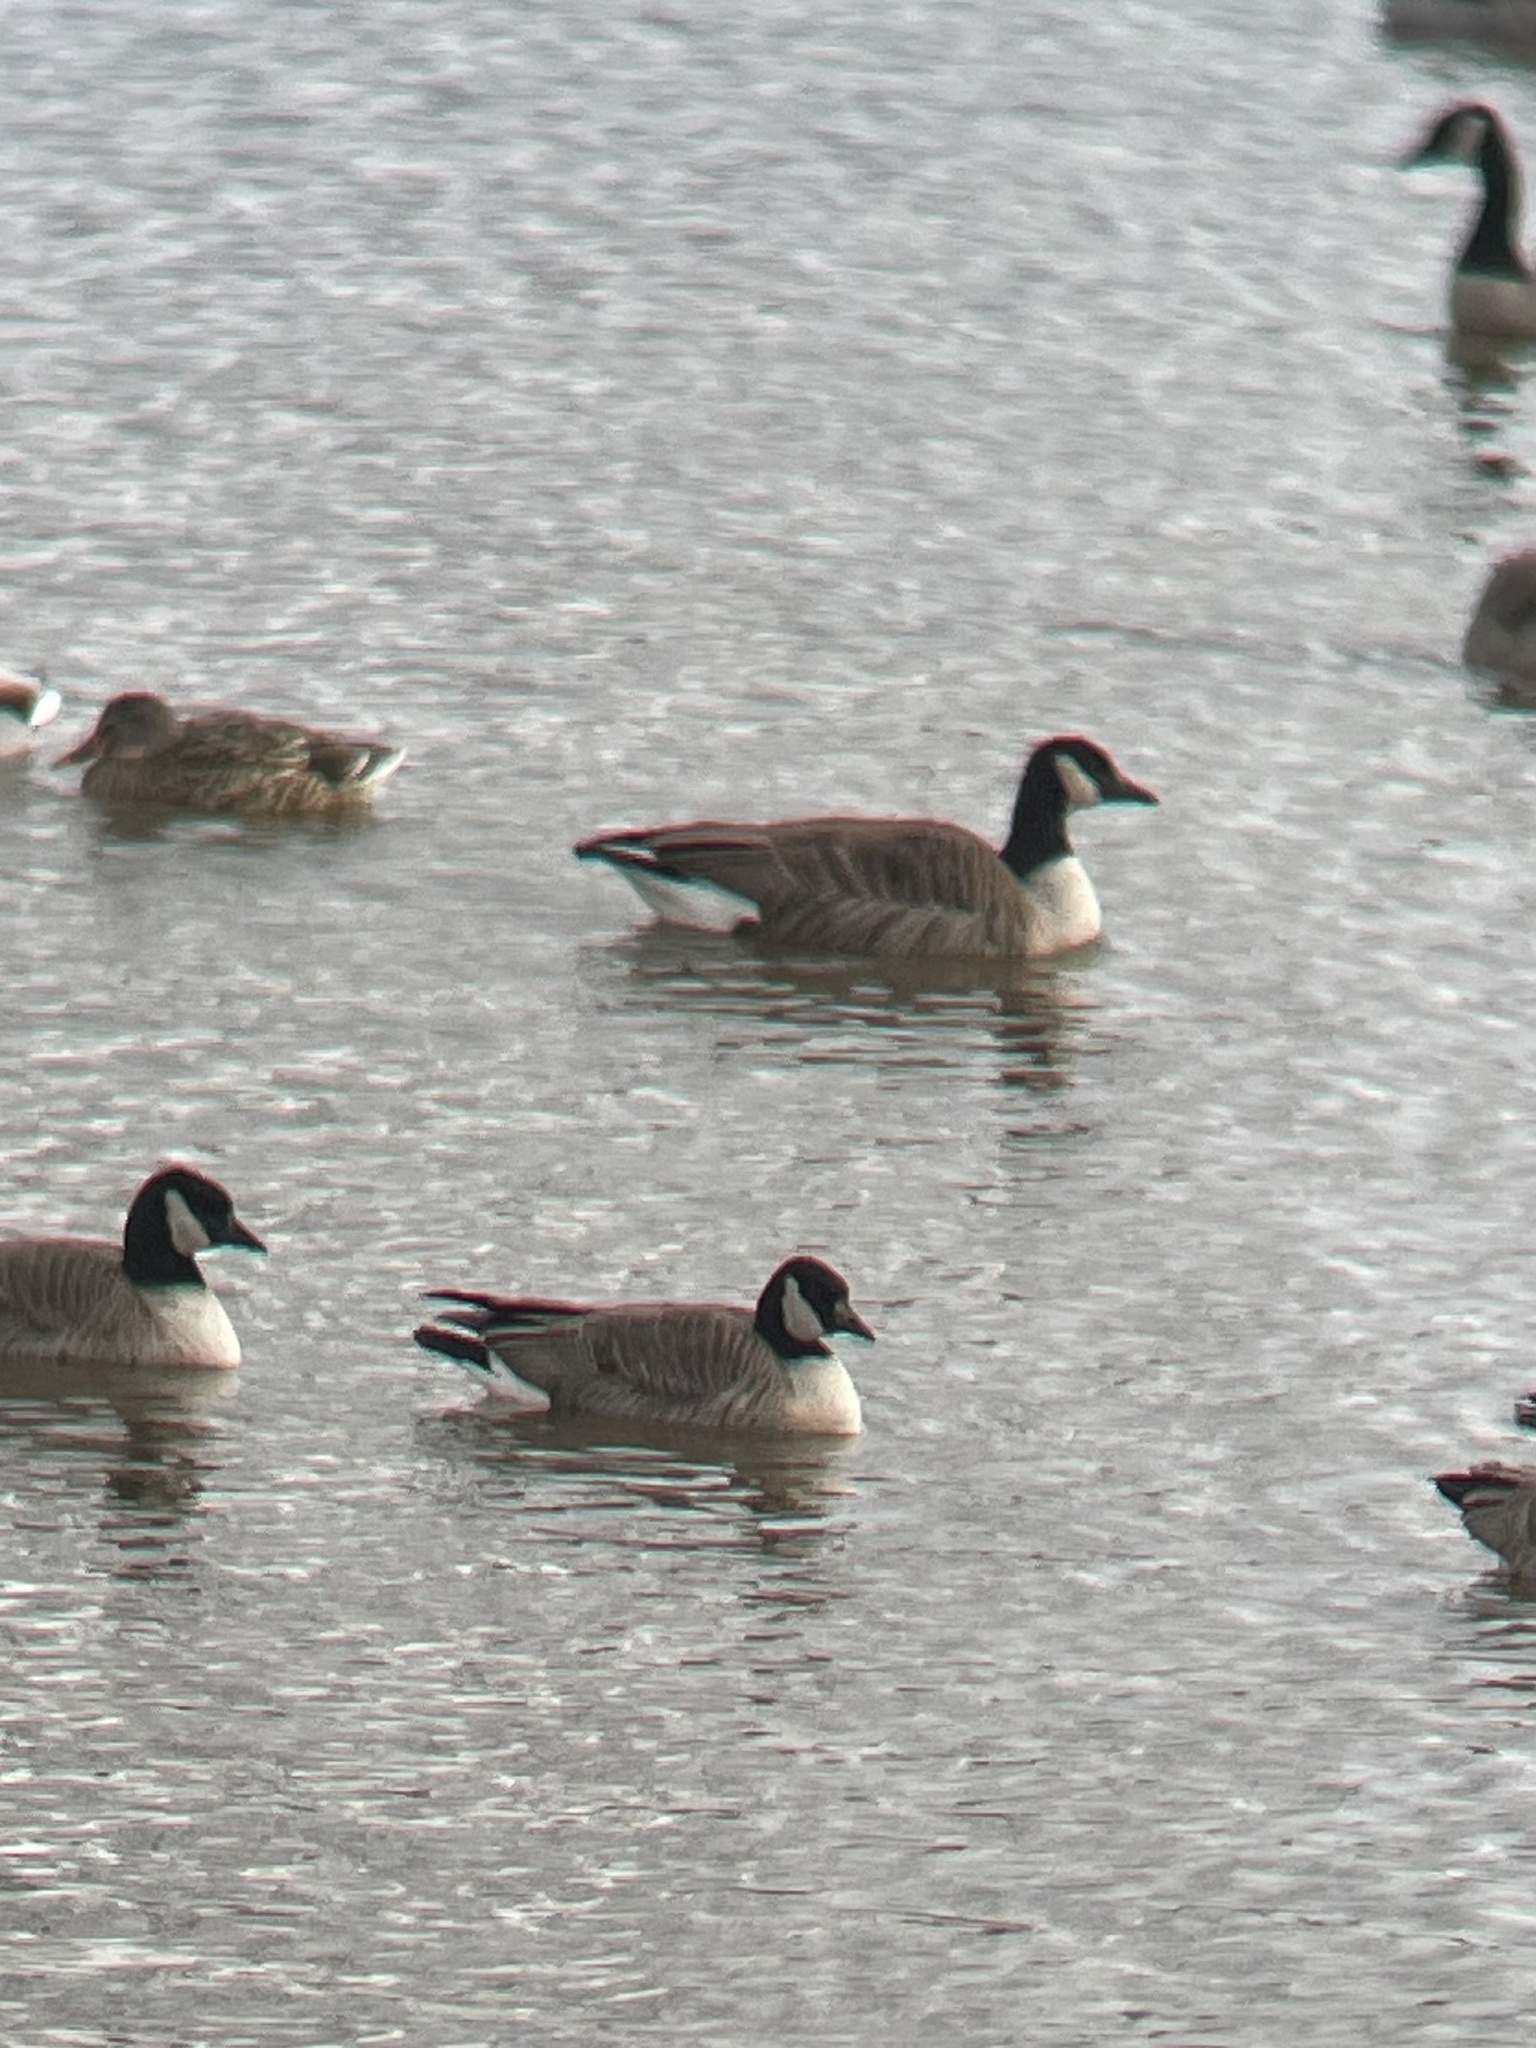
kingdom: Animalia
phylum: Chordata
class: Aves
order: Anseriformes
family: Anatidae
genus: Branta
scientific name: Branta hutchinsii
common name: Cackling goose
